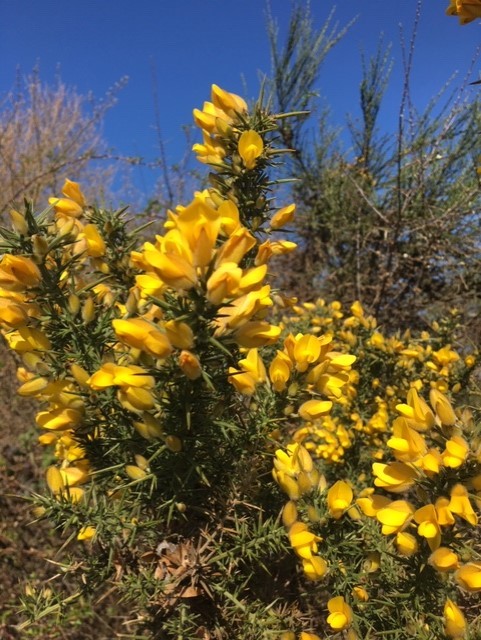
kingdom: Plantae
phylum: Tracheophyta
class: Magnoliopsida
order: Fabales
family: Fabaceae
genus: Ulex
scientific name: Ulex europaeus
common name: Common gorse
